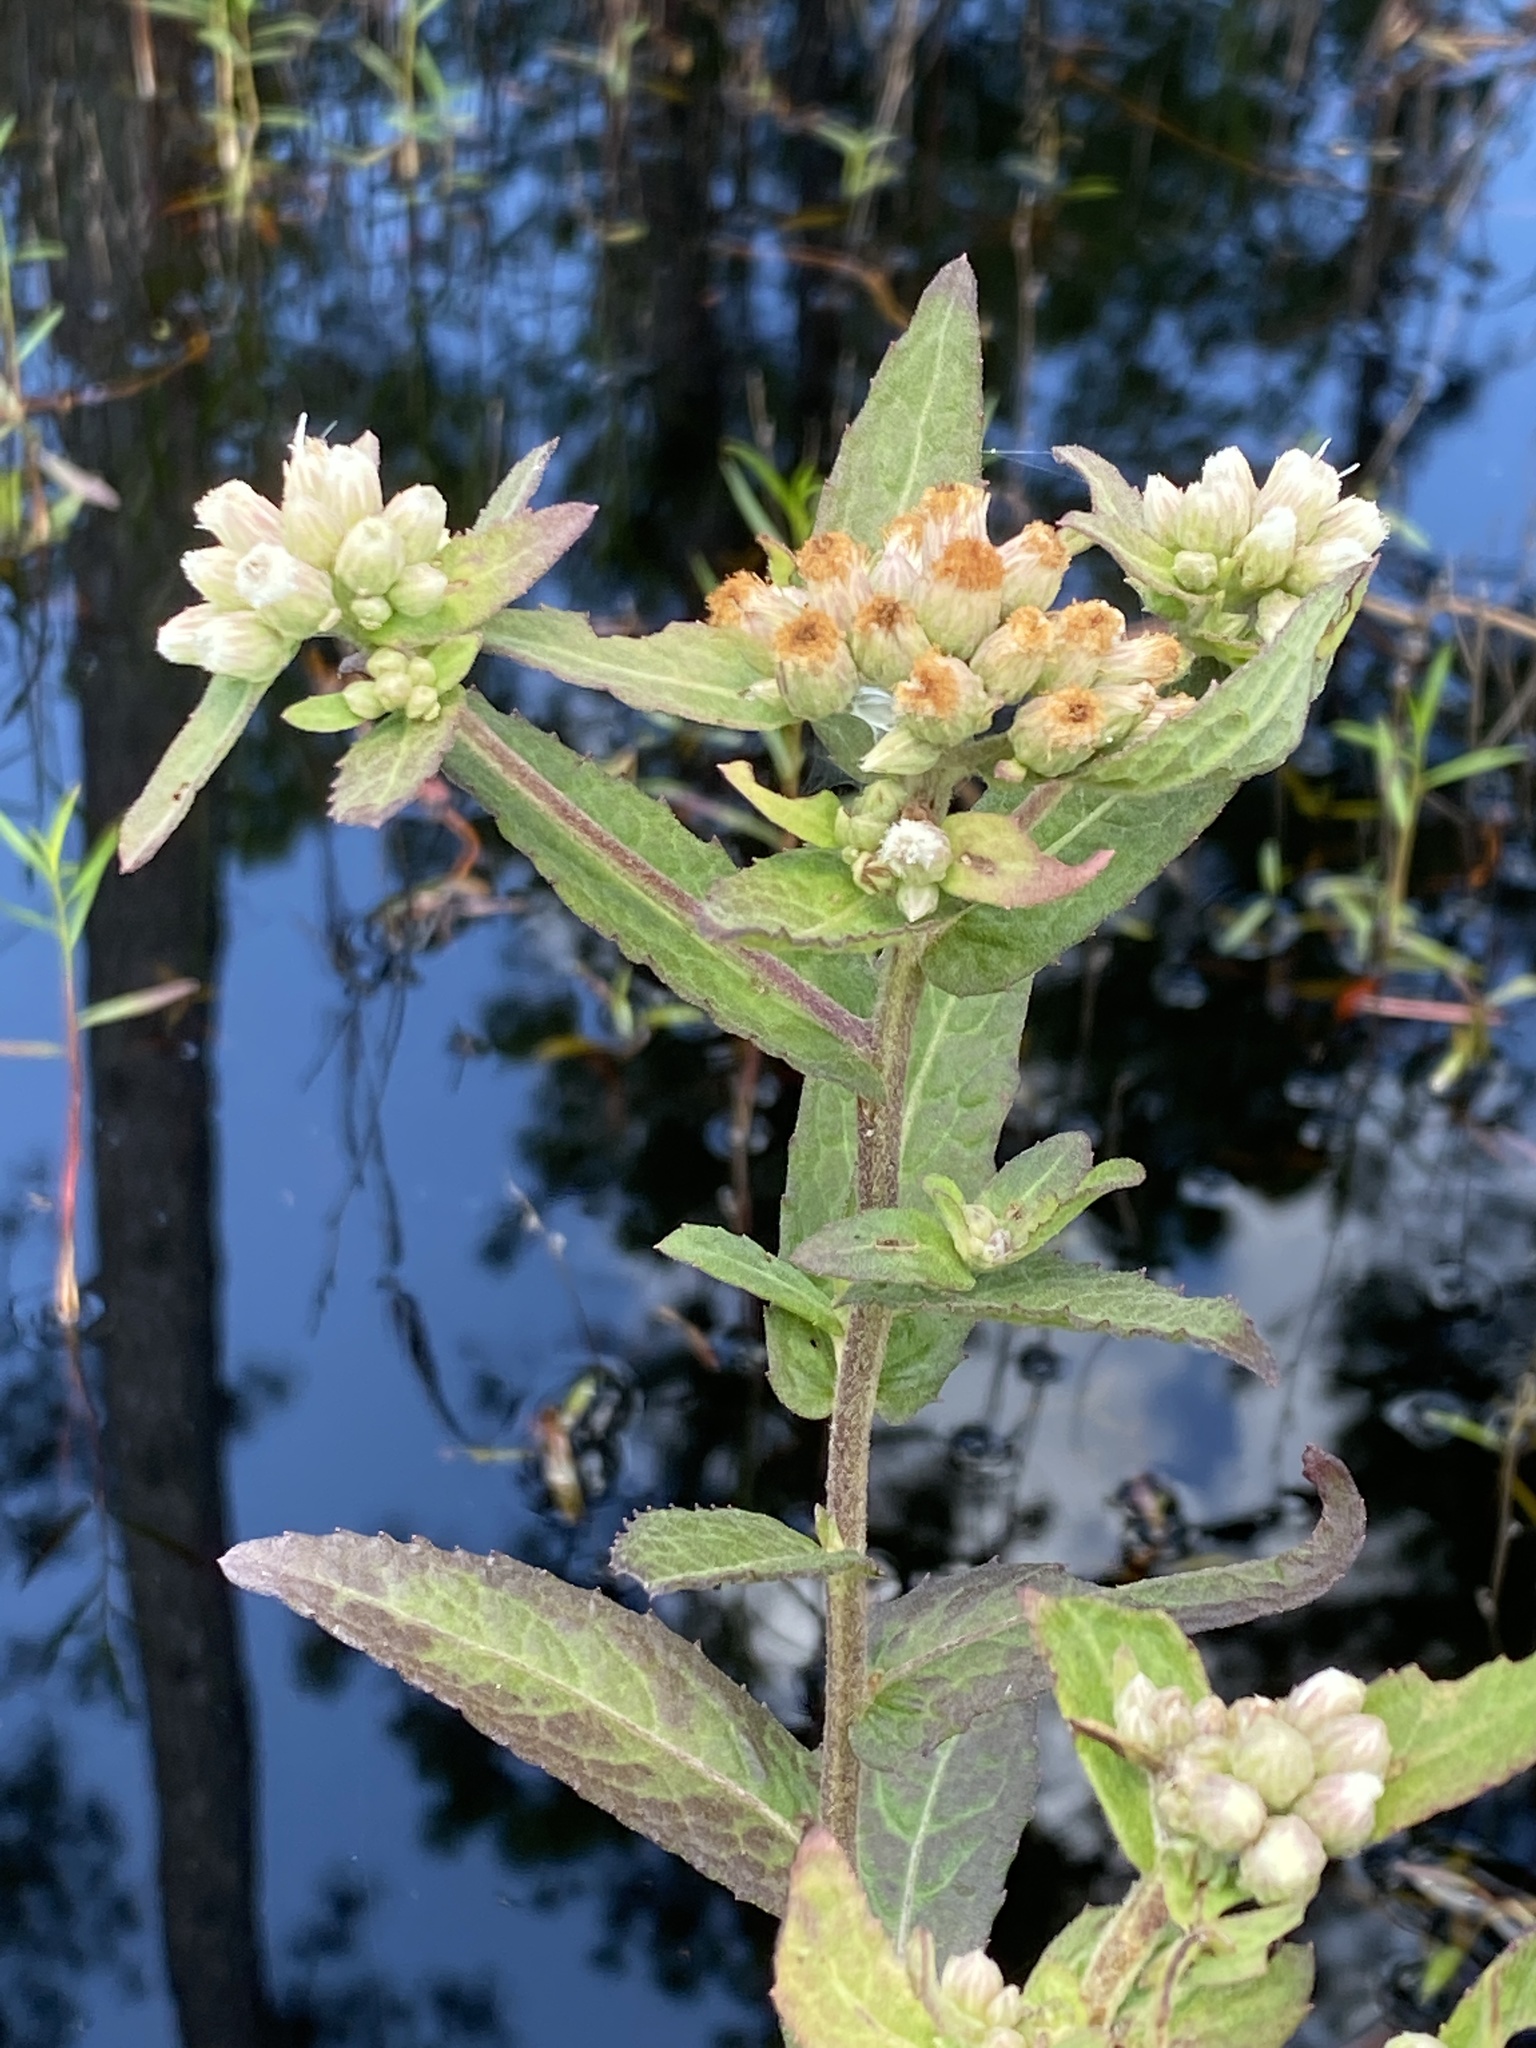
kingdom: Plantae
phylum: Tracheophyta
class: Magnoliopsida
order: Asterales
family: Asteraceae
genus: Pluchea
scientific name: Pluchea foetida
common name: Stinking camphorweed
